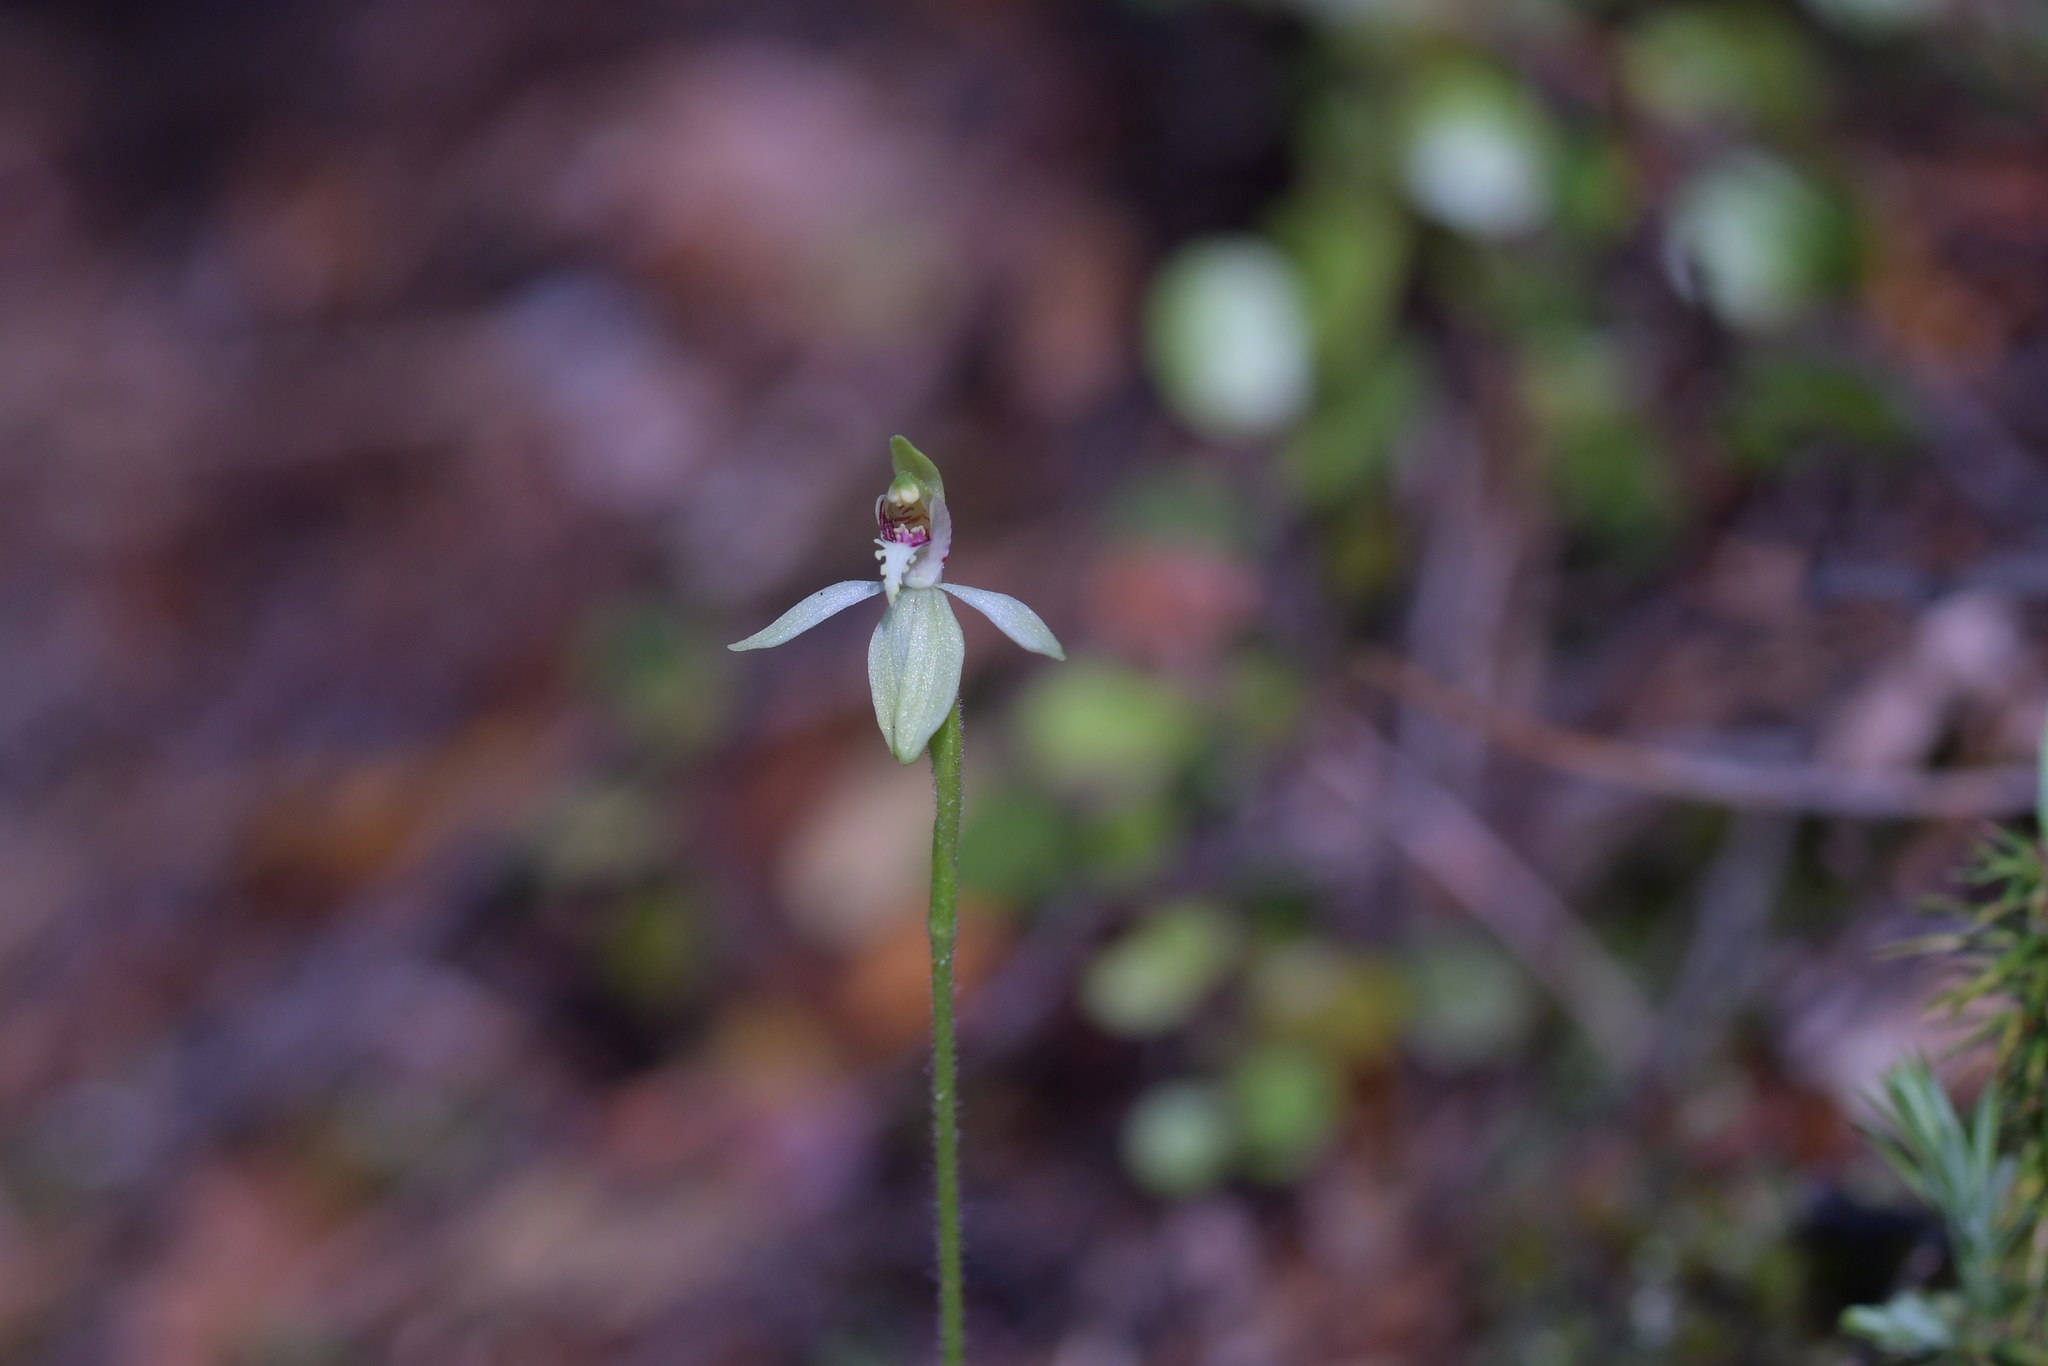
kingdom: Plantae
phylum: Tracheophyta
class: Liliopsida
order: Asparagales
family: Orchidaceae
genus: Caladenia
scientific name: Caladenia chlorostyla
